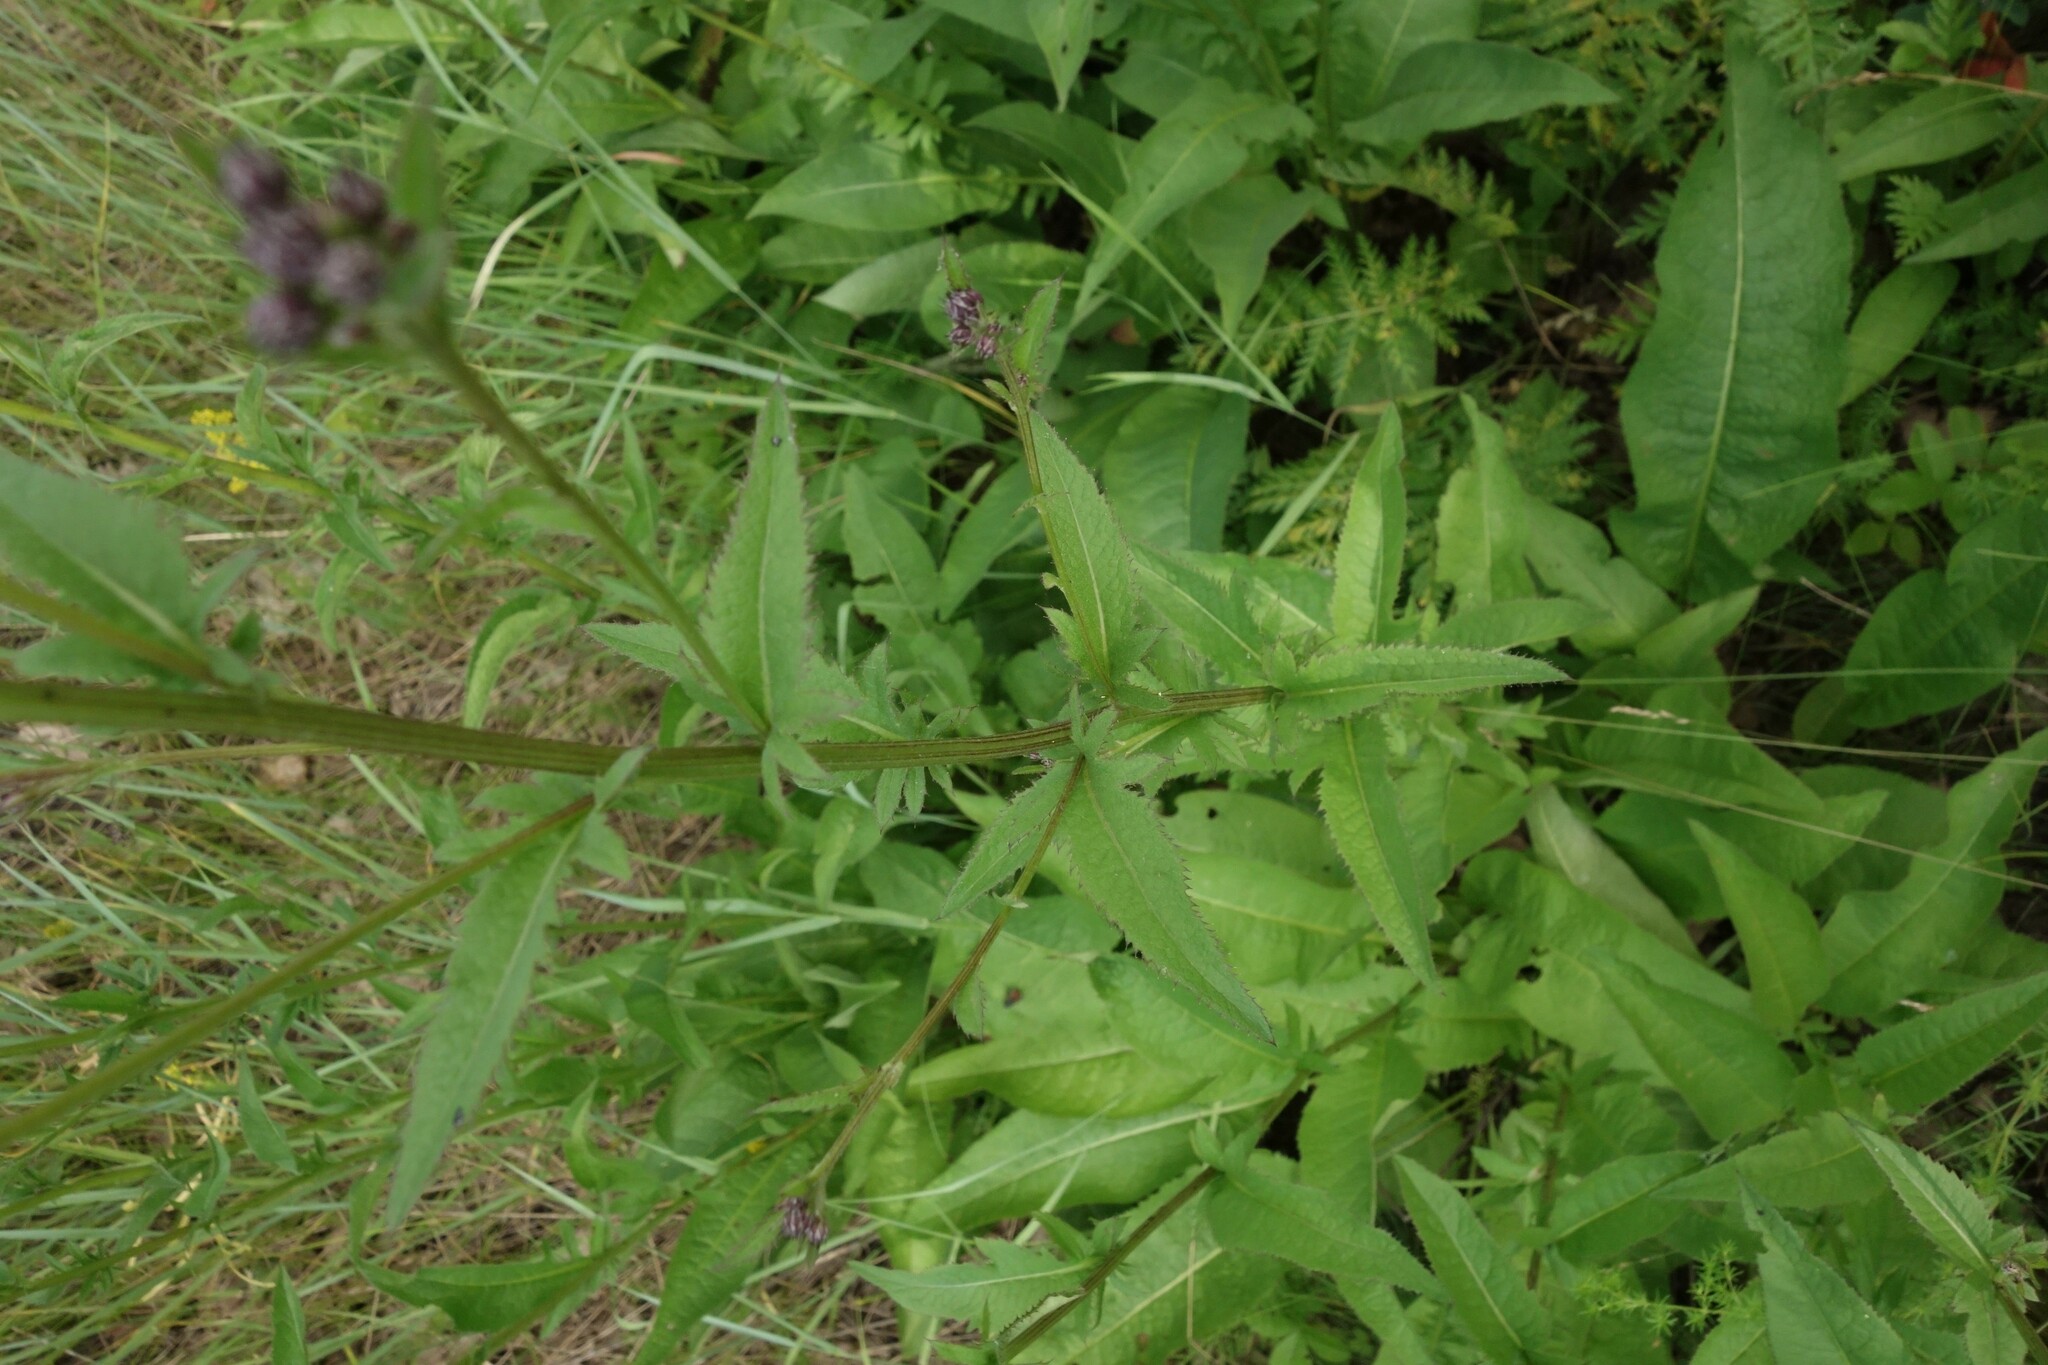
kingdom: Plantae
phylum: Tracheophyta
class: Magnoliopsida
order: Asterales
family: Asteraceae
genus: Serratula
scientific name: Serratula tinctoria
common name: Saw-wort
